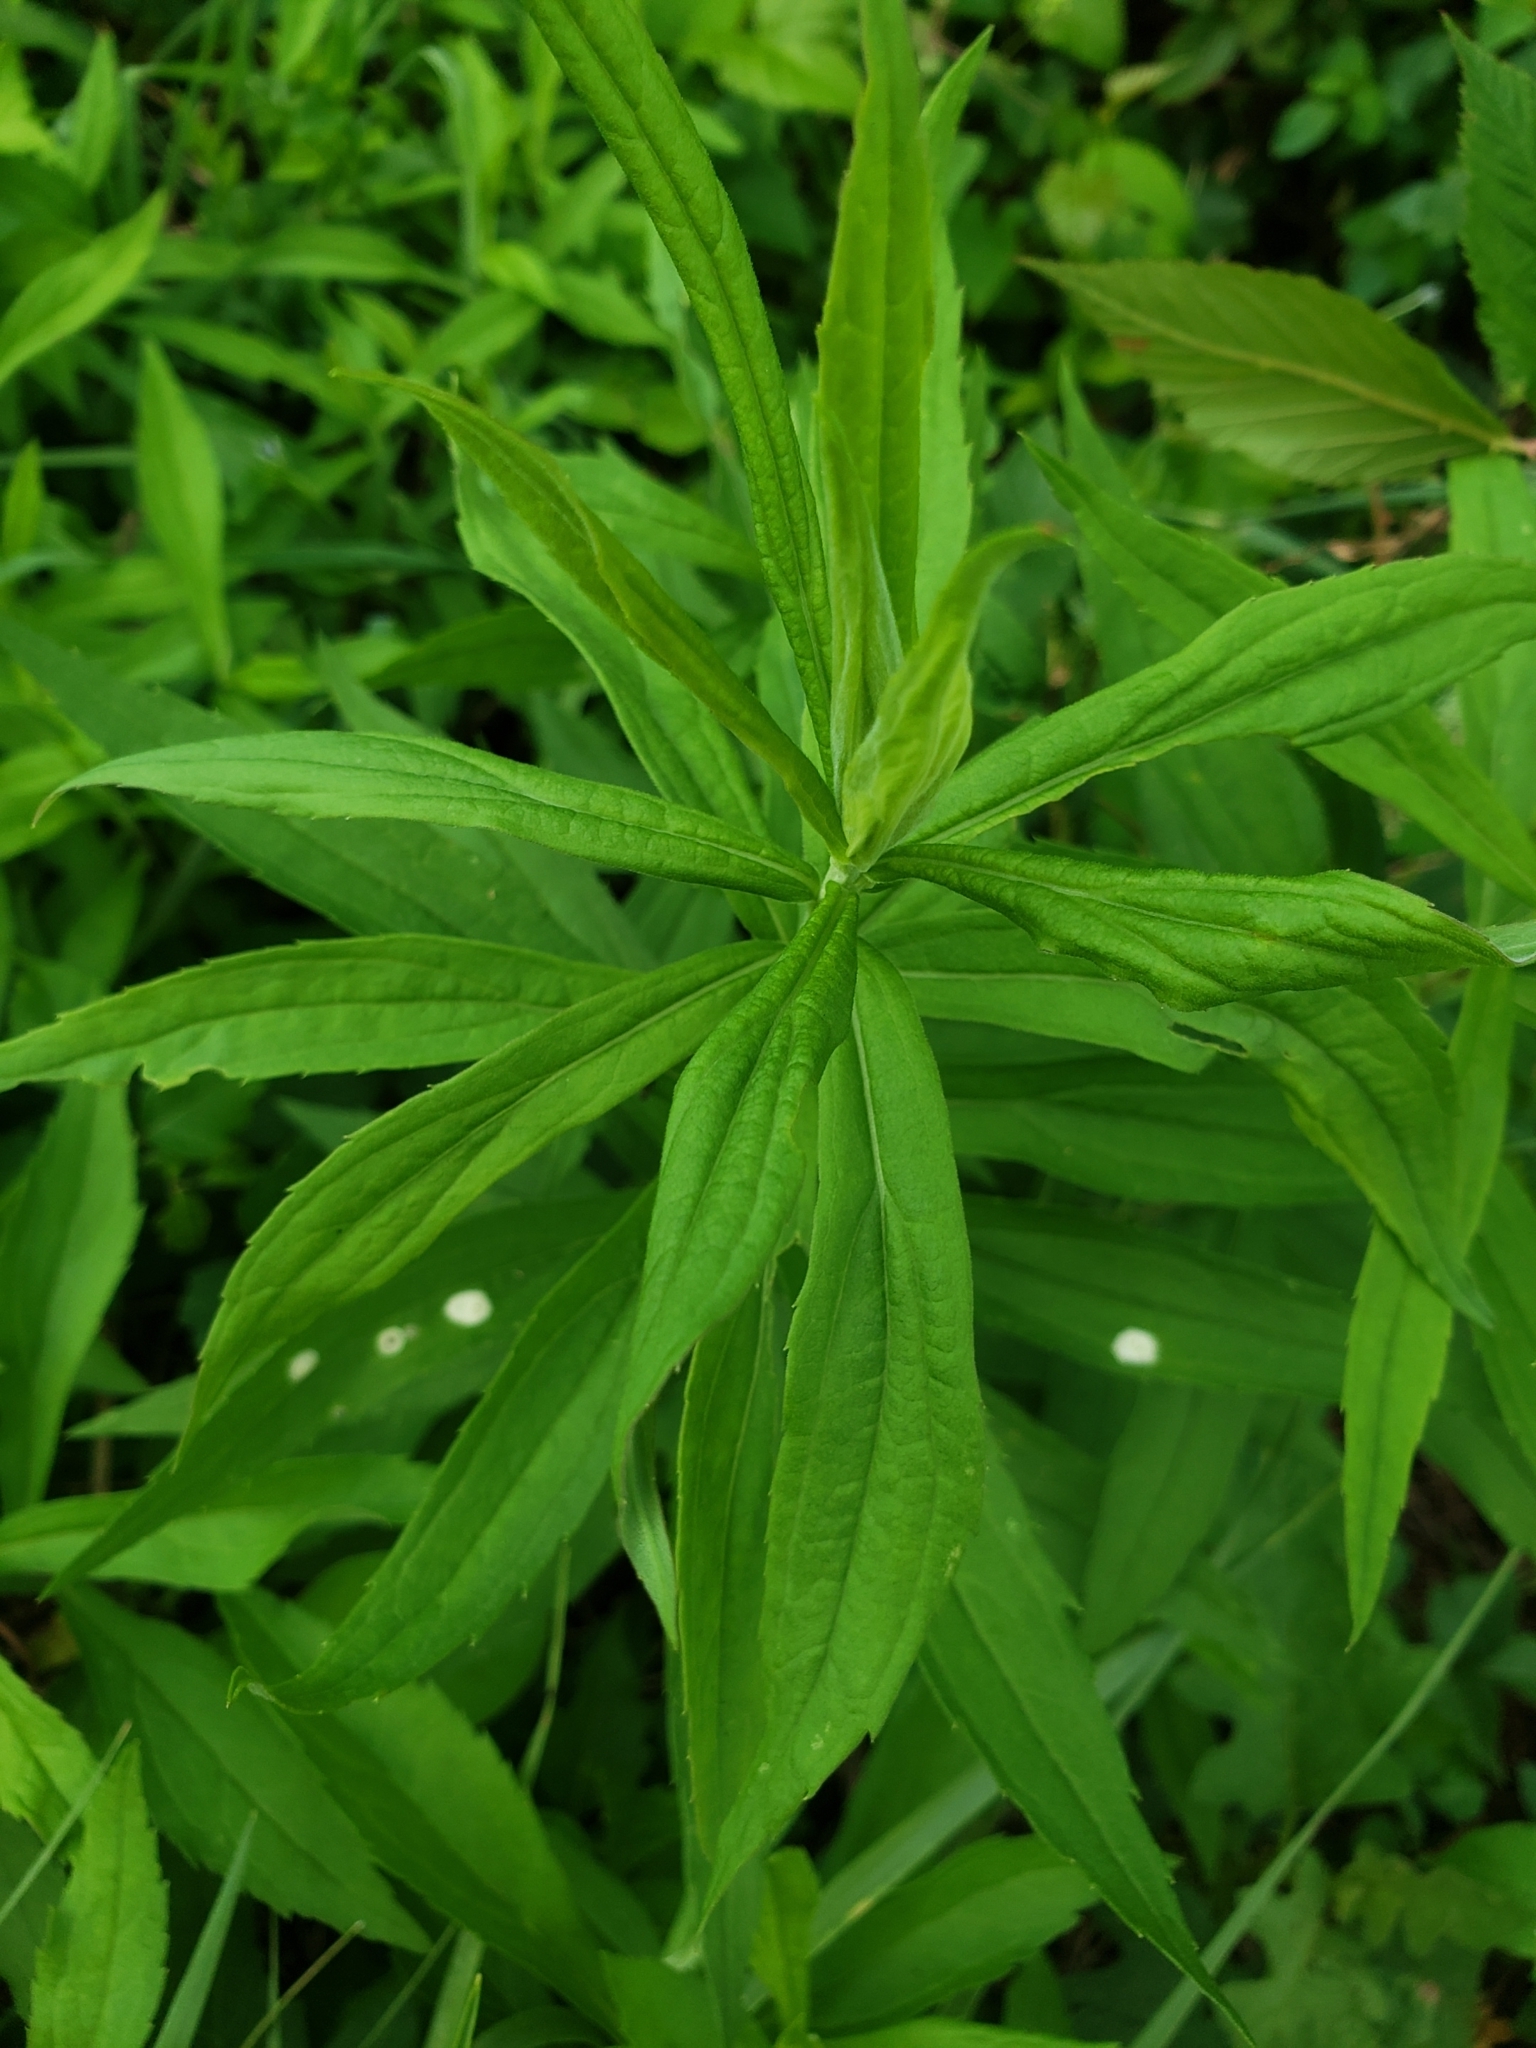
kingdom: Animalia
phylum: Arthropoda
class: Insecta
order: Diptera
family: Cecidomyiidae
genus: Asteromyia
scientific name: Asteromyia carbonifera
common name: Carbonifera goldenrod gall midge
